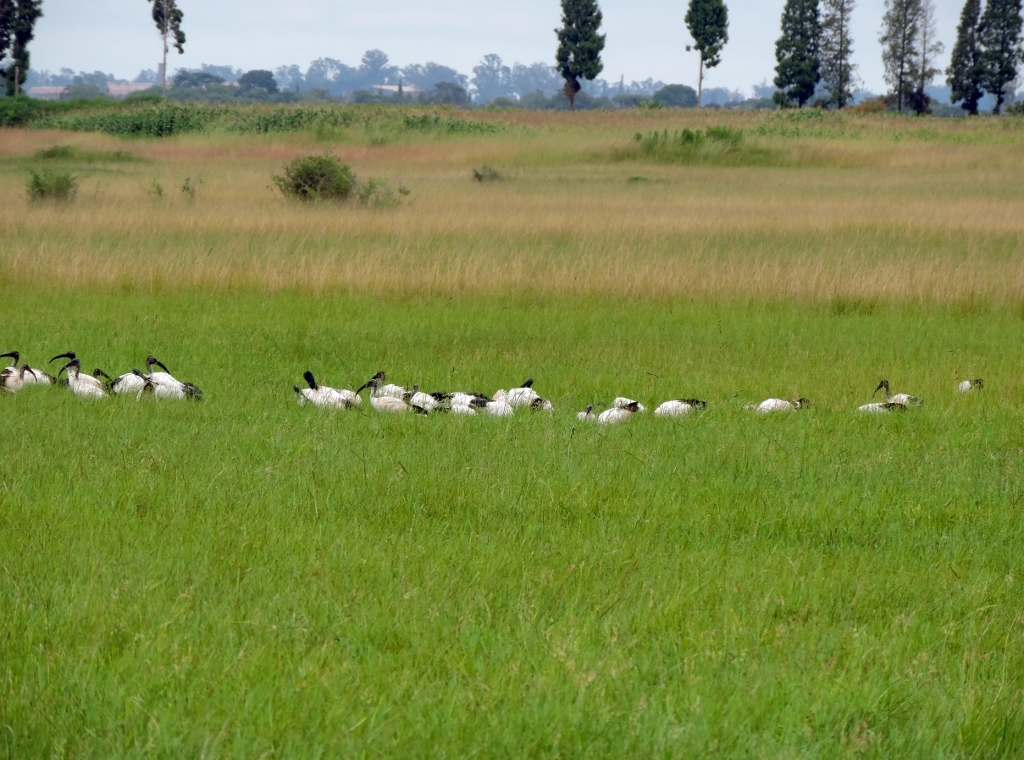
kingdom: Animalia
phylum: Chordata
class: Aves
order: Pelecaniformes
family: Threskiornithidae
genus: Threskiornis
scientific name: Threskiornis aethiopicus
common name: Sacred ibis
